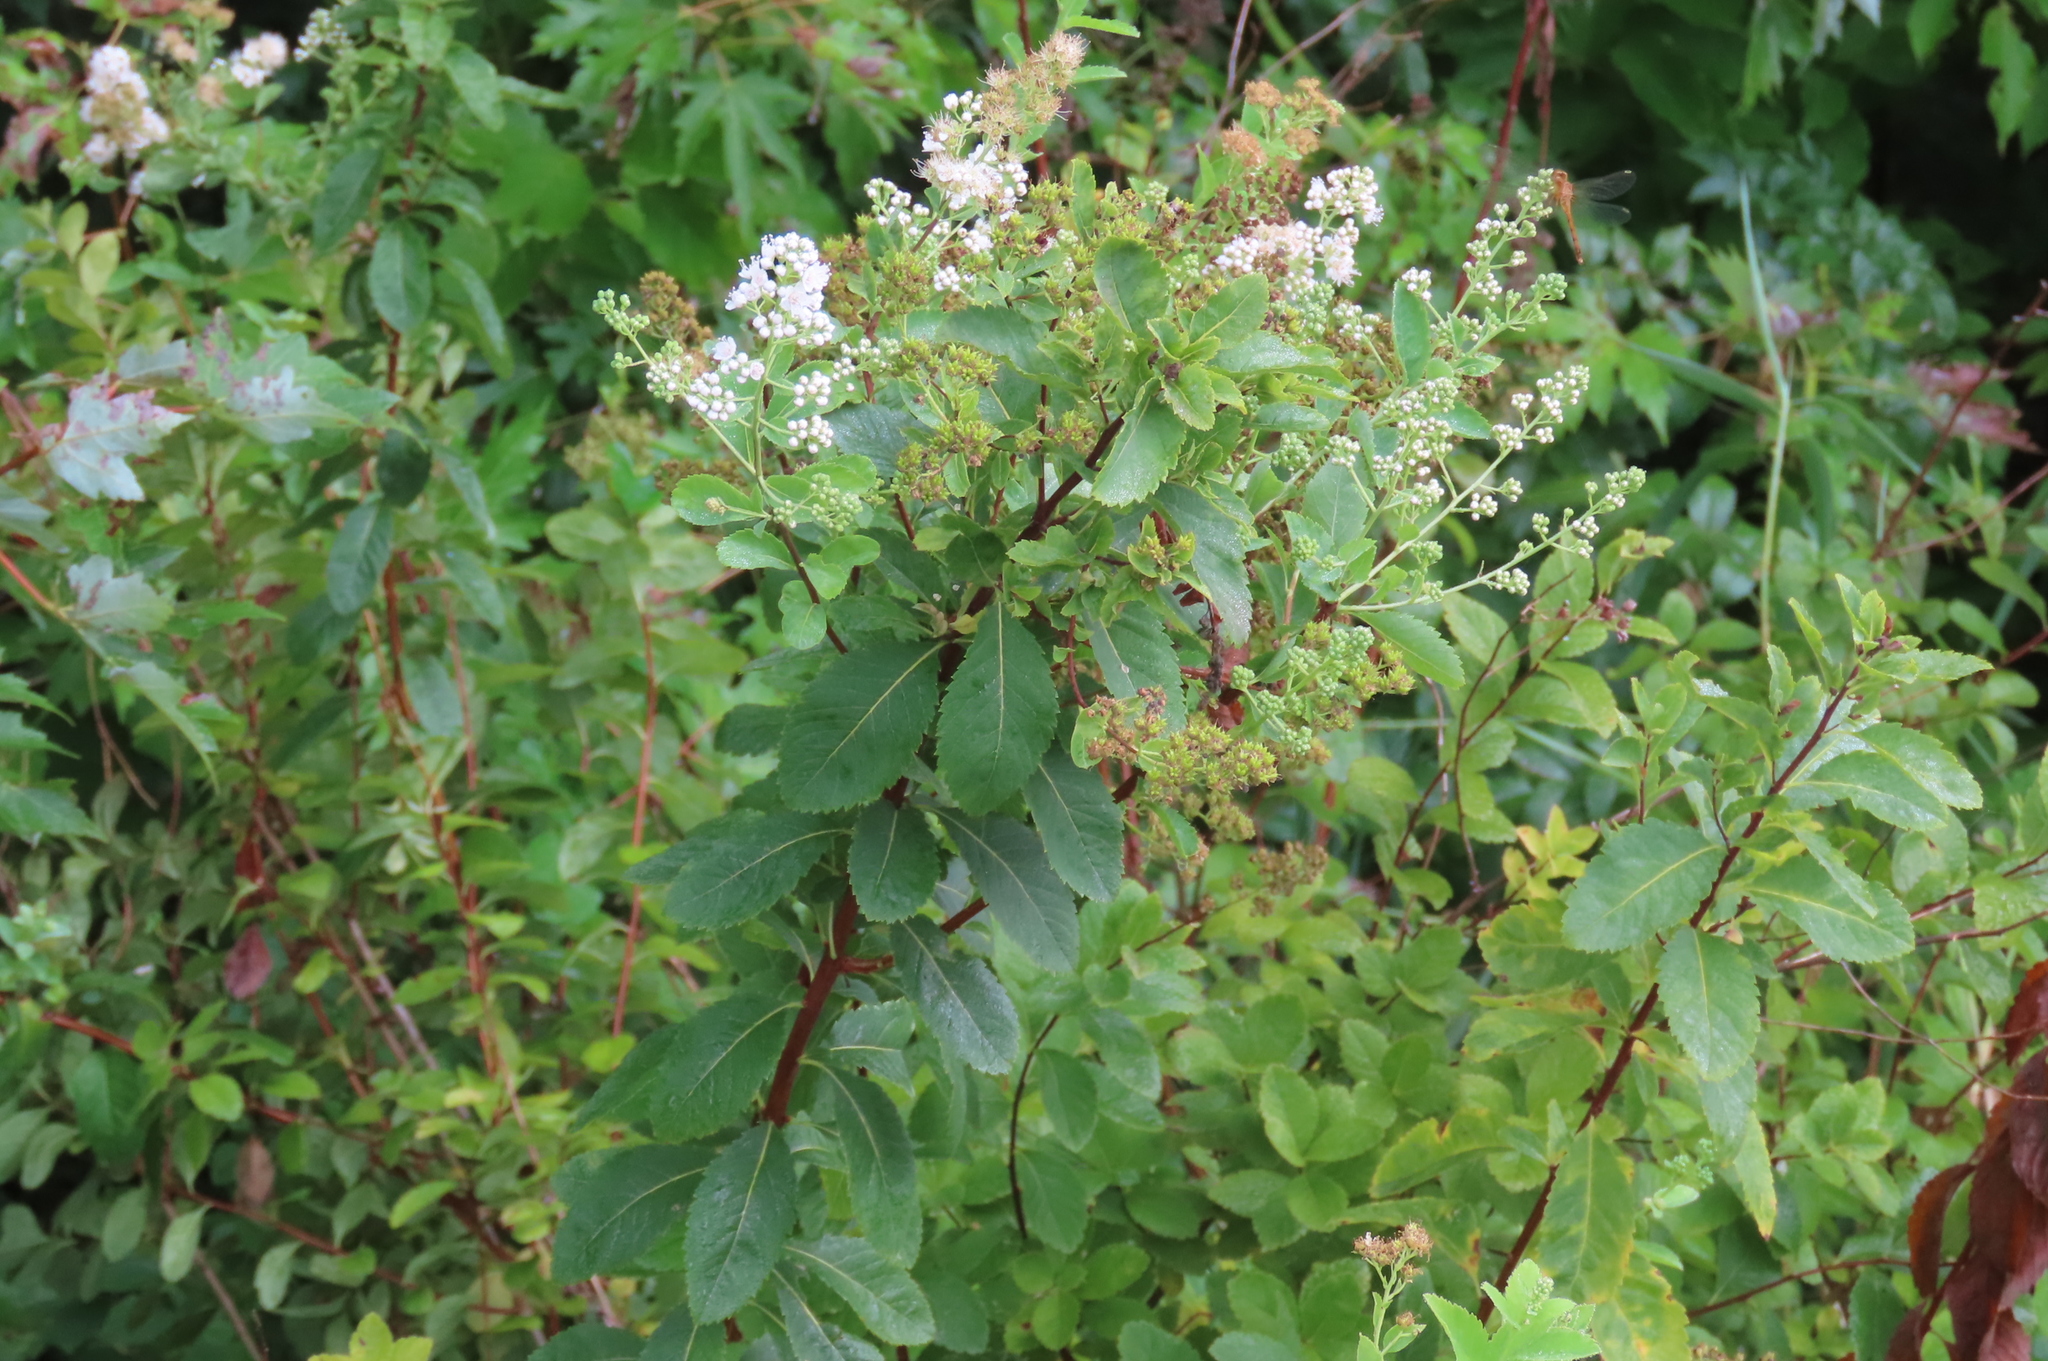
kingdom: Plantae
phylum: Tracheophyta
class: Magnoliopsida
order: Rosales
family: Rosaceae
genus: Spiraea
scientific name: Spiraea alba
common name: Pale bridewort
